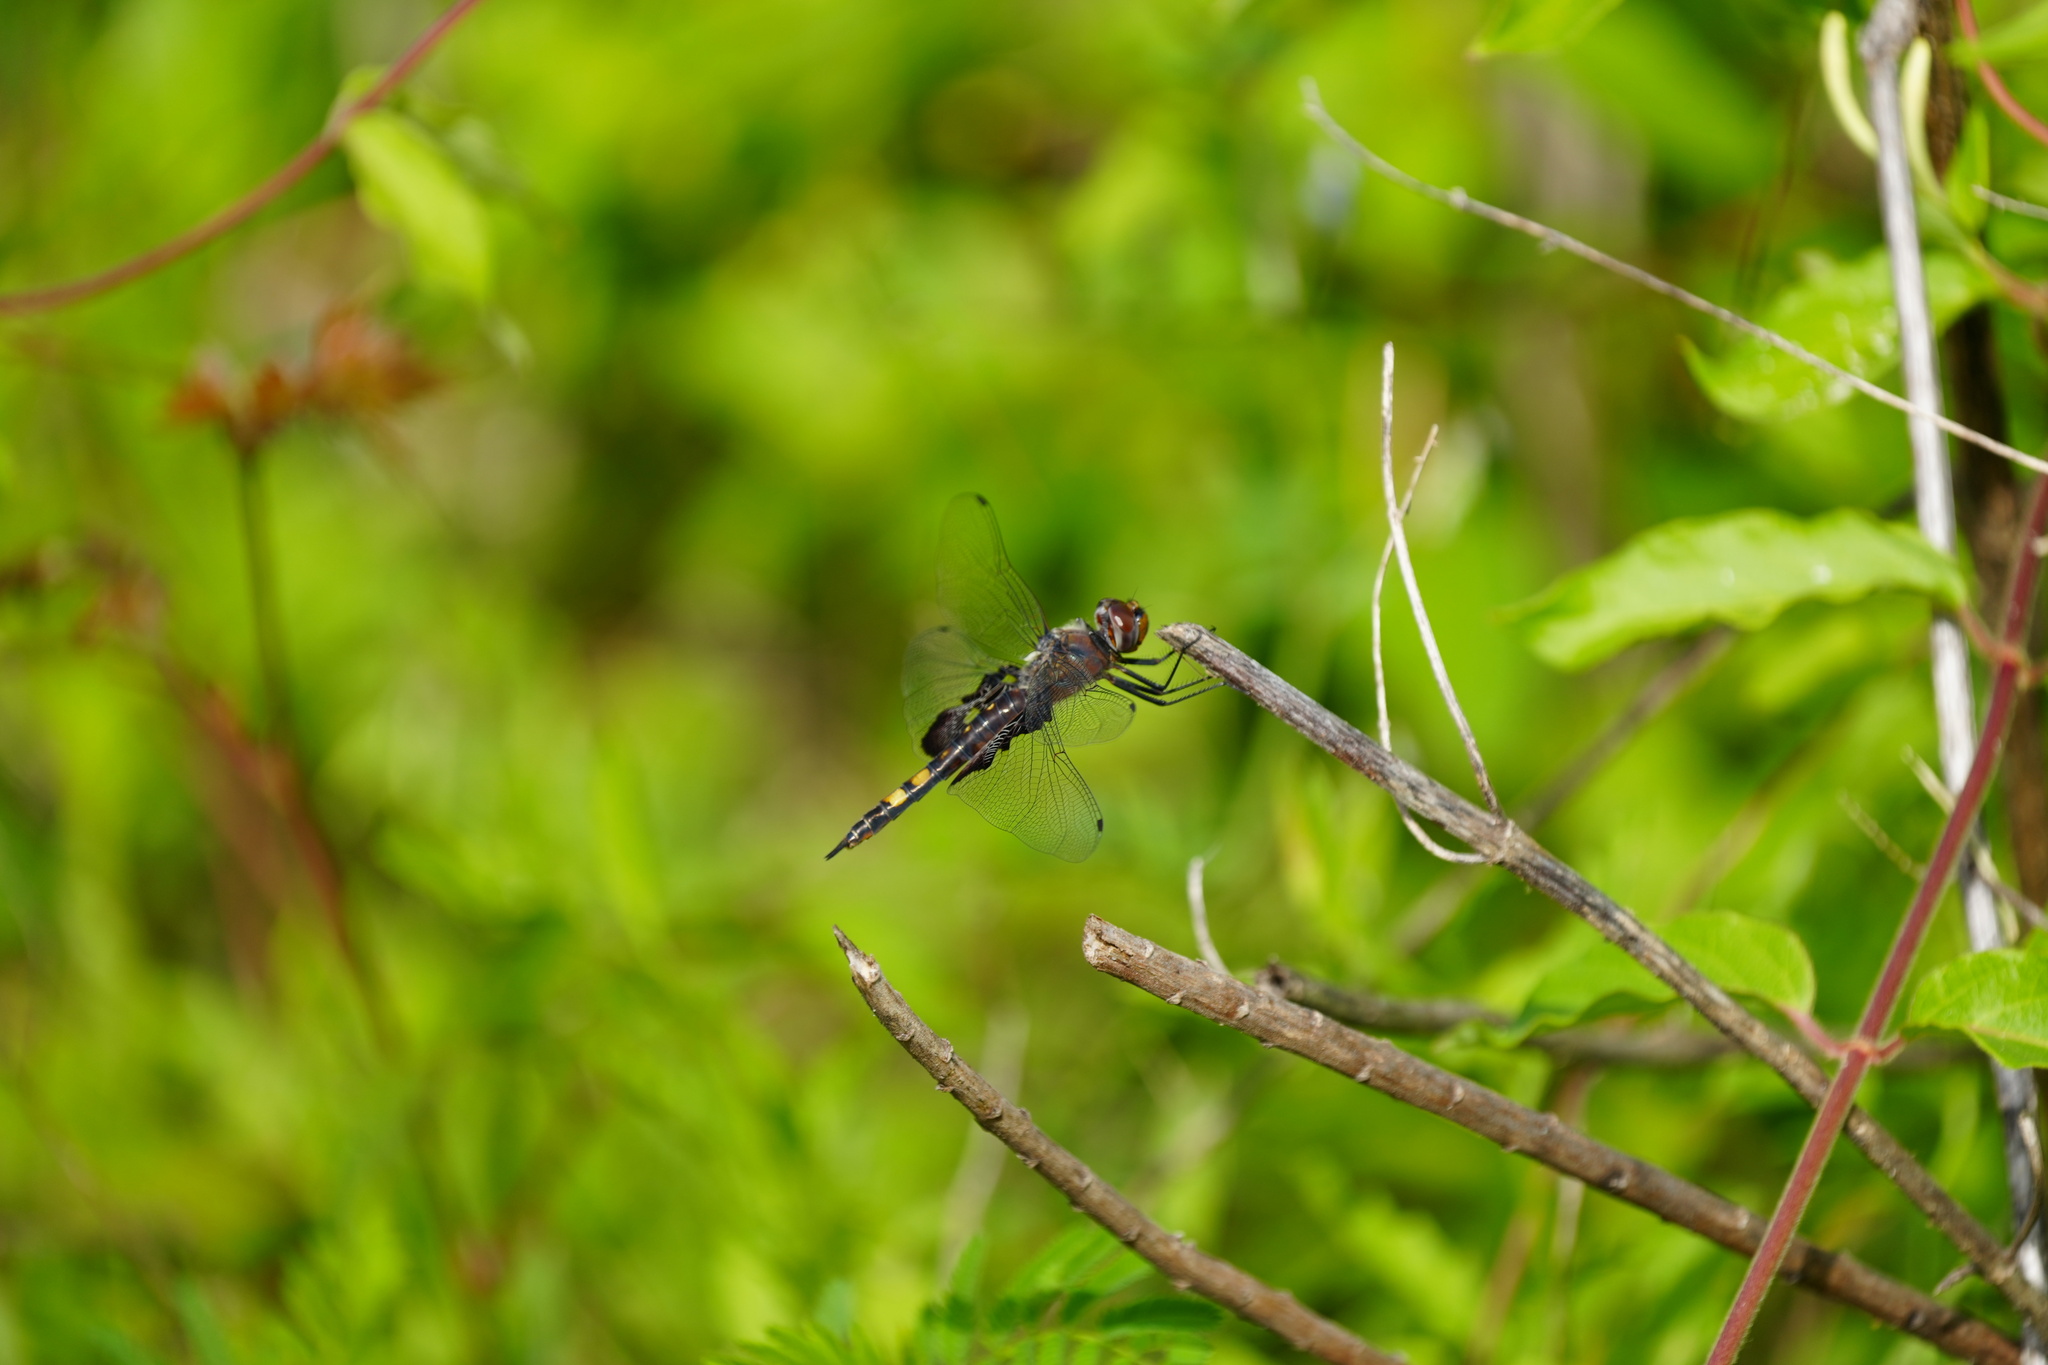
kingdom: Animalia
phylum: Arthropoda
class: Insecta
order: Odonata
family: Libellulidae
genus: Tramea
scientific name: Tramea lacerata
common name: Black saddlebags
